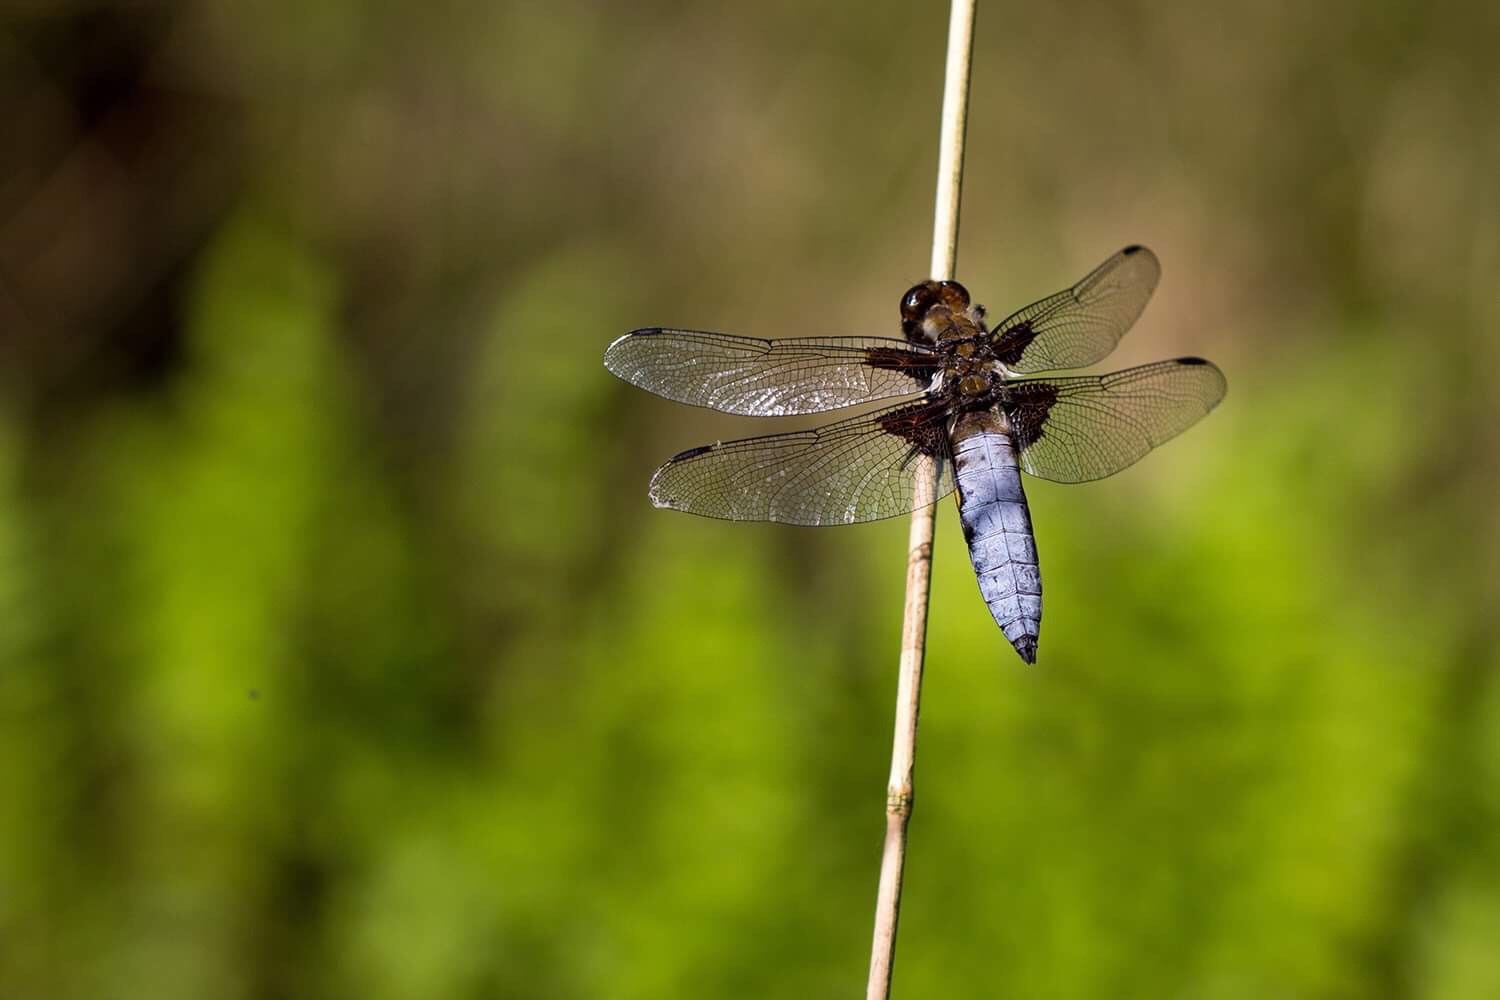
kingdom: Animalia
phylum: Arthropoda
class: Insecta
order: Odonata
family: Libellulidae
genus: Libellula
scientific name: Libellula depressa
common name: Broad-bodied chaser
